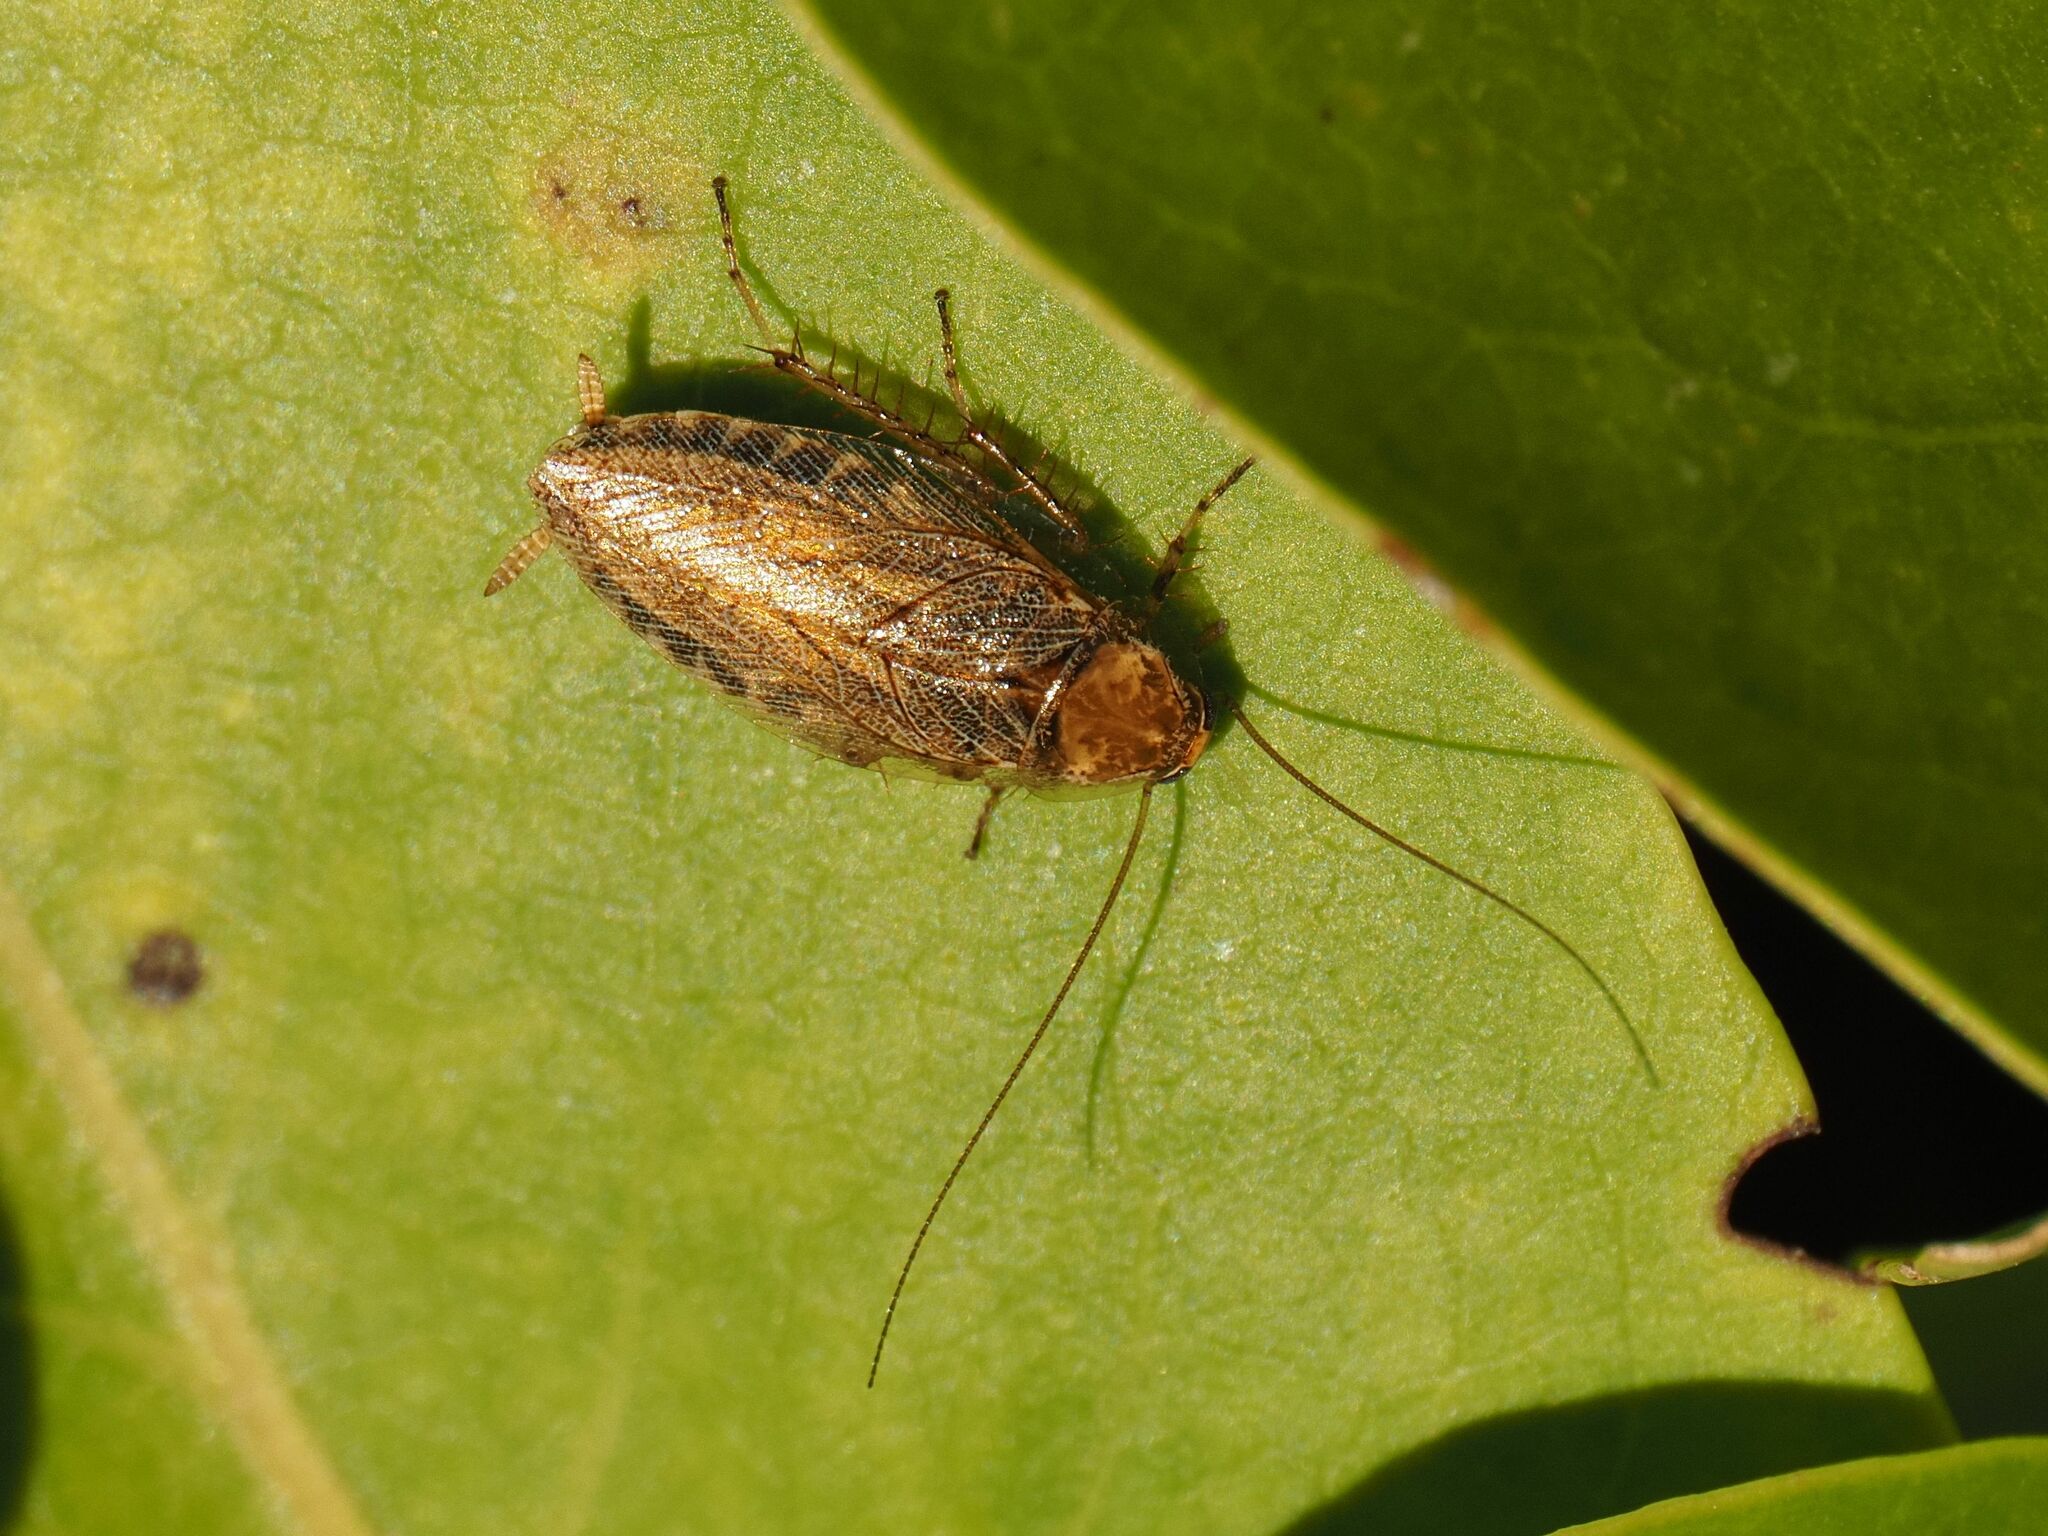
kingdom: Animalia
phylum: Arthropoda
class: Insecta
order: Blattodea
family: Ectobiidae
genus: Ectobius
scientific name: Ectobius vittiventris
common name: Garden cockroach
